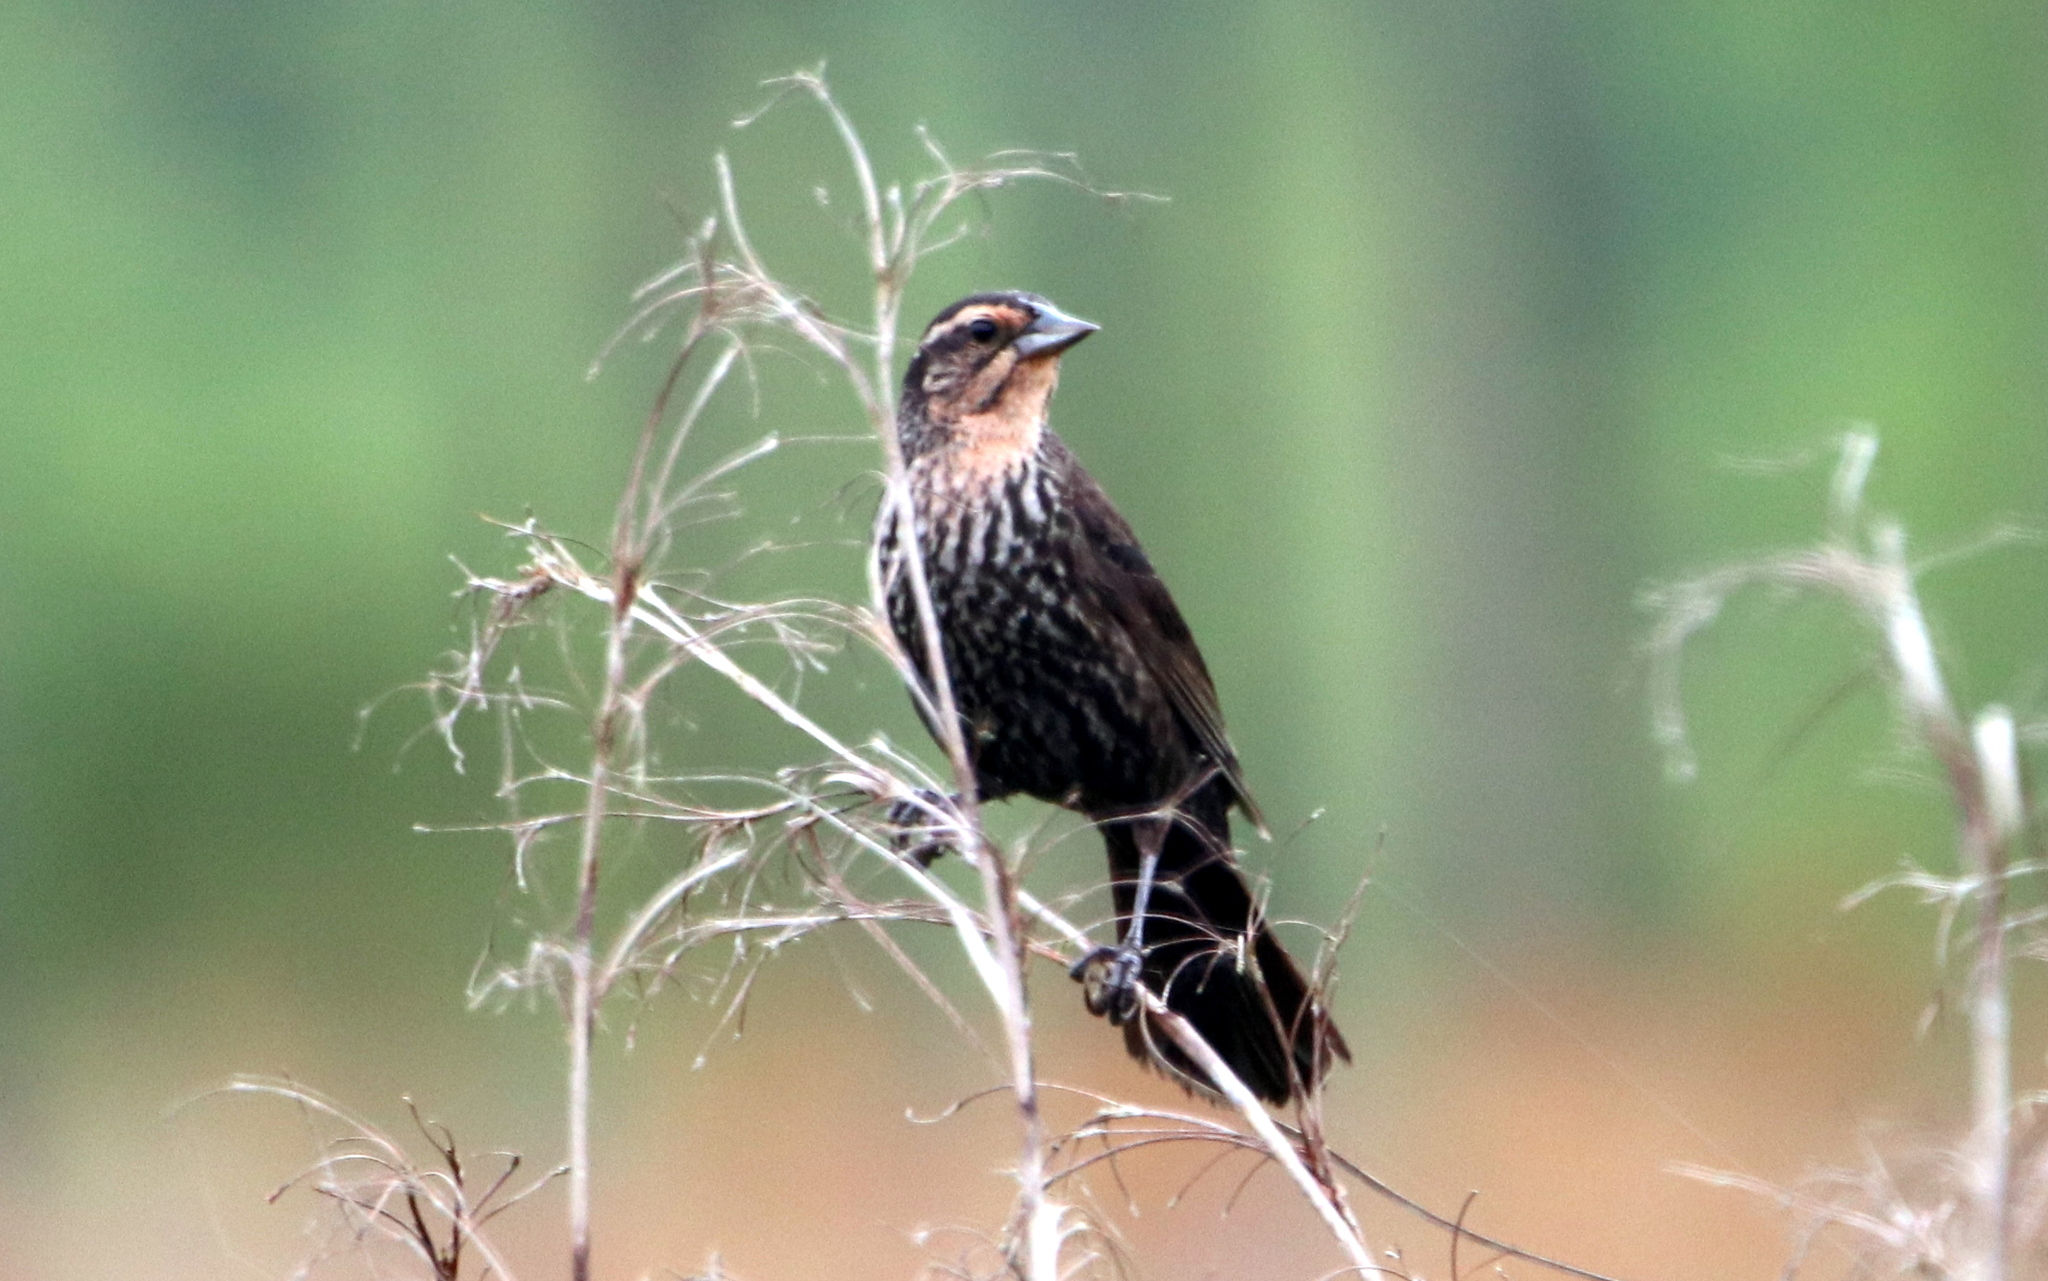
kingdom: Animalia
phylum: Chordata
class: Aves
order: Passeriformes
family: Icteridae
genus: Agelaius
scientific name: Agelaius phoeniceus
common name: Red-winged blackbird
